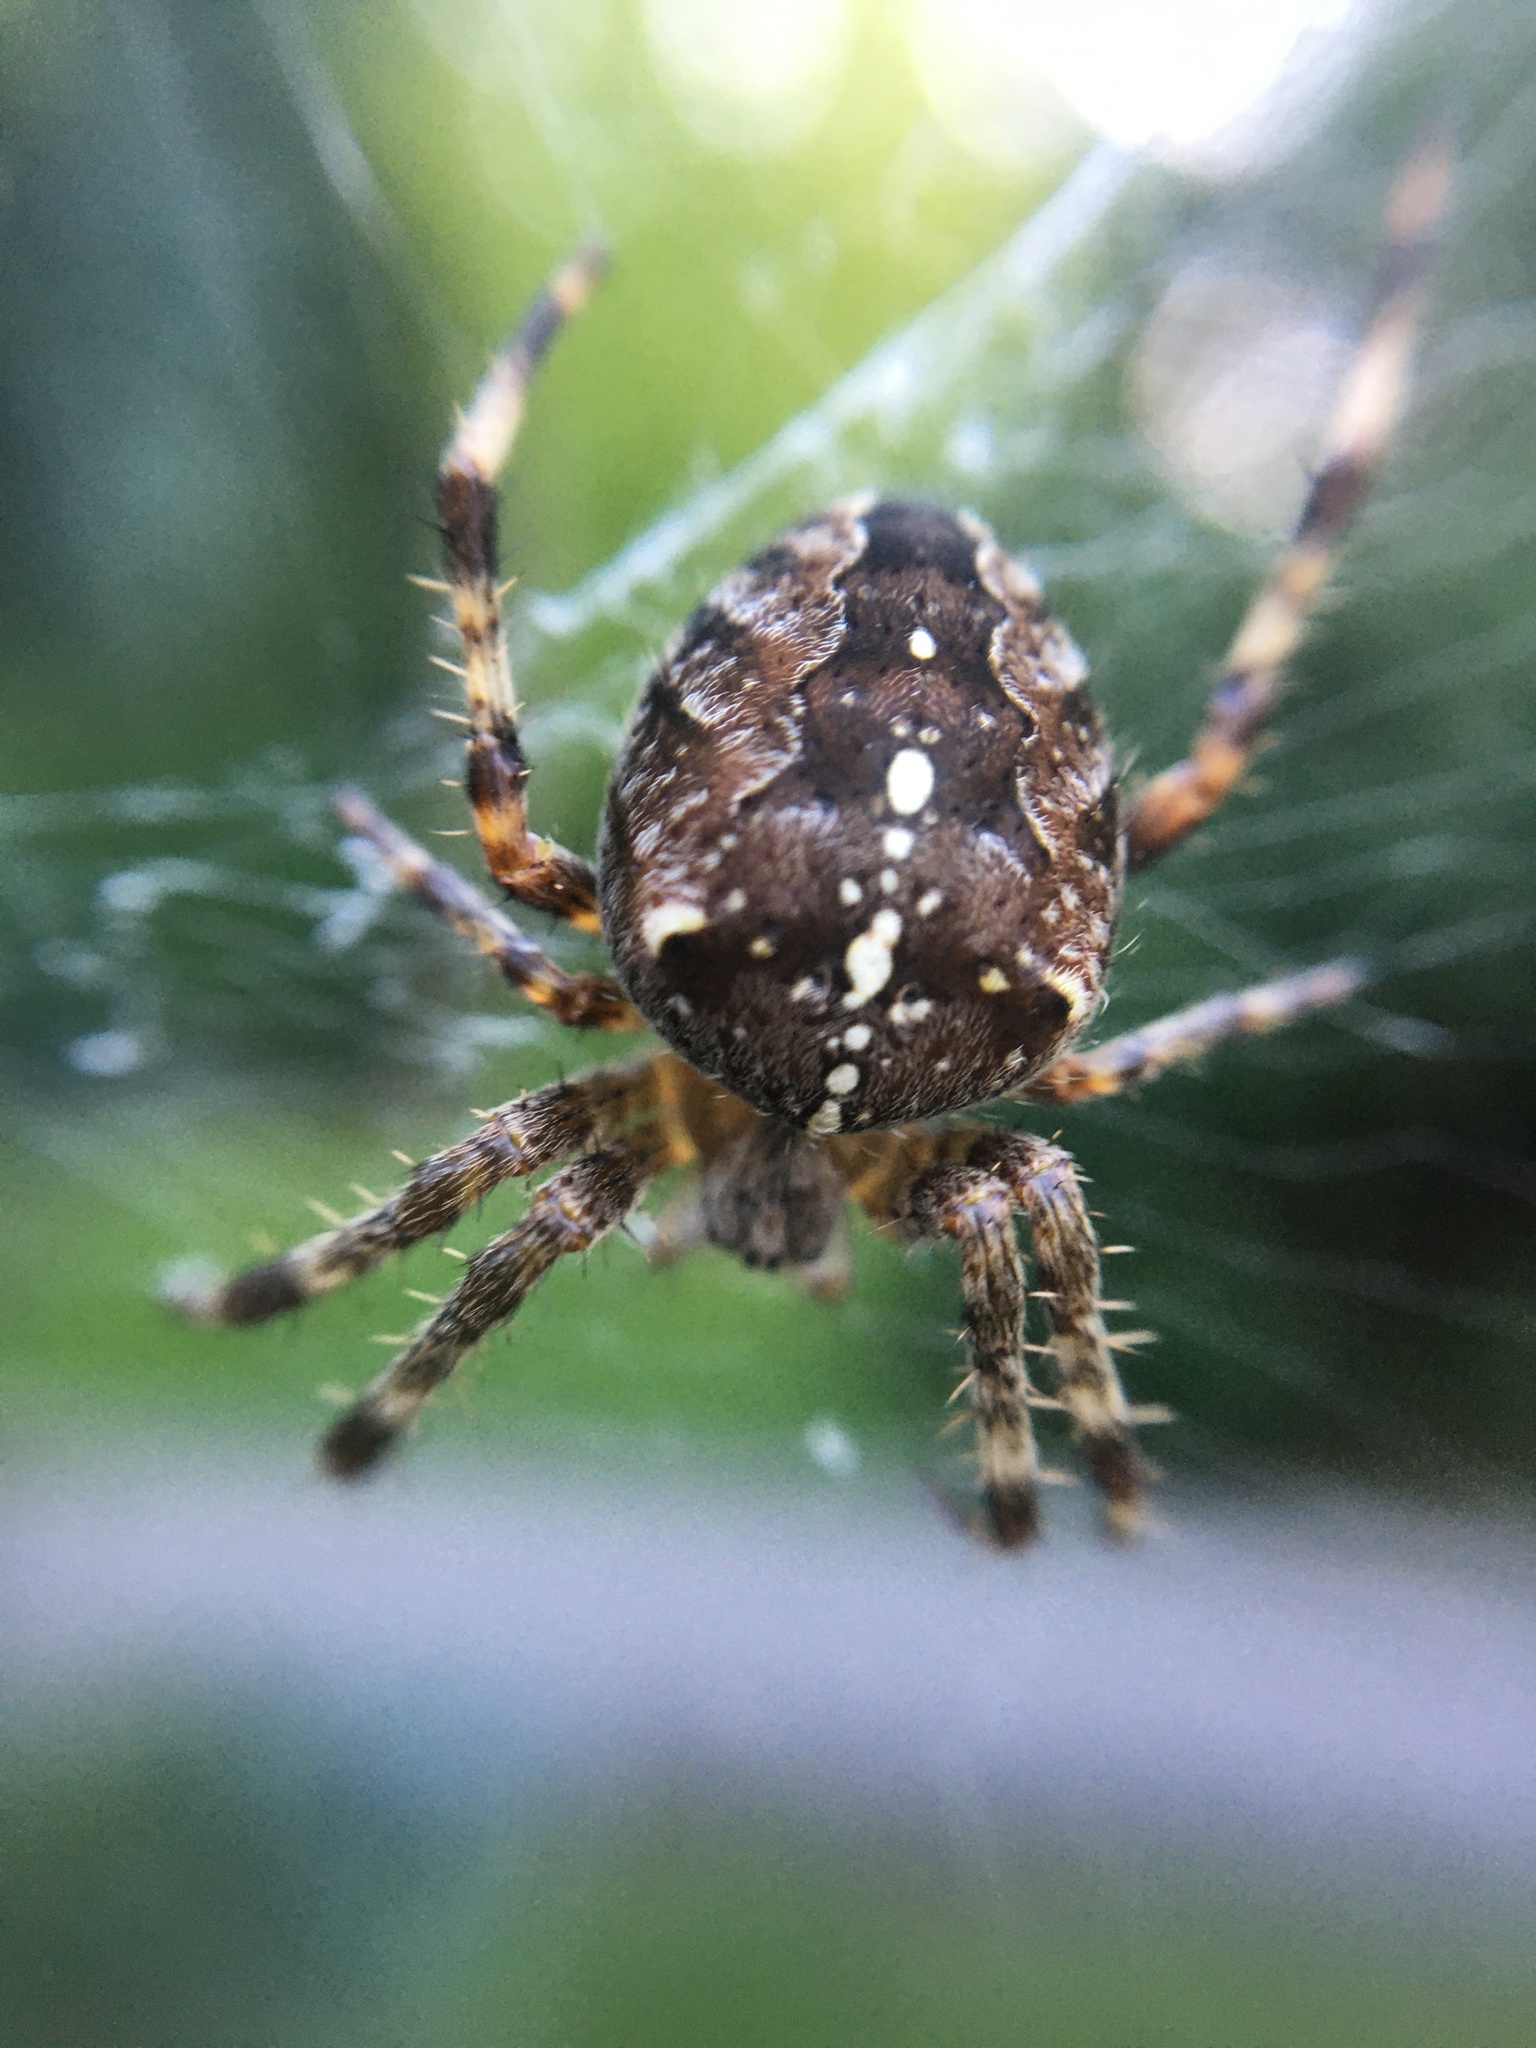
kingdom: Animalia
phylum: Arthropoda
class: Arachnida
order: Araneae
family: Araneidae
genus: Araneus
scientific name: Araneus diadematus
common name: Cross orbweaver
